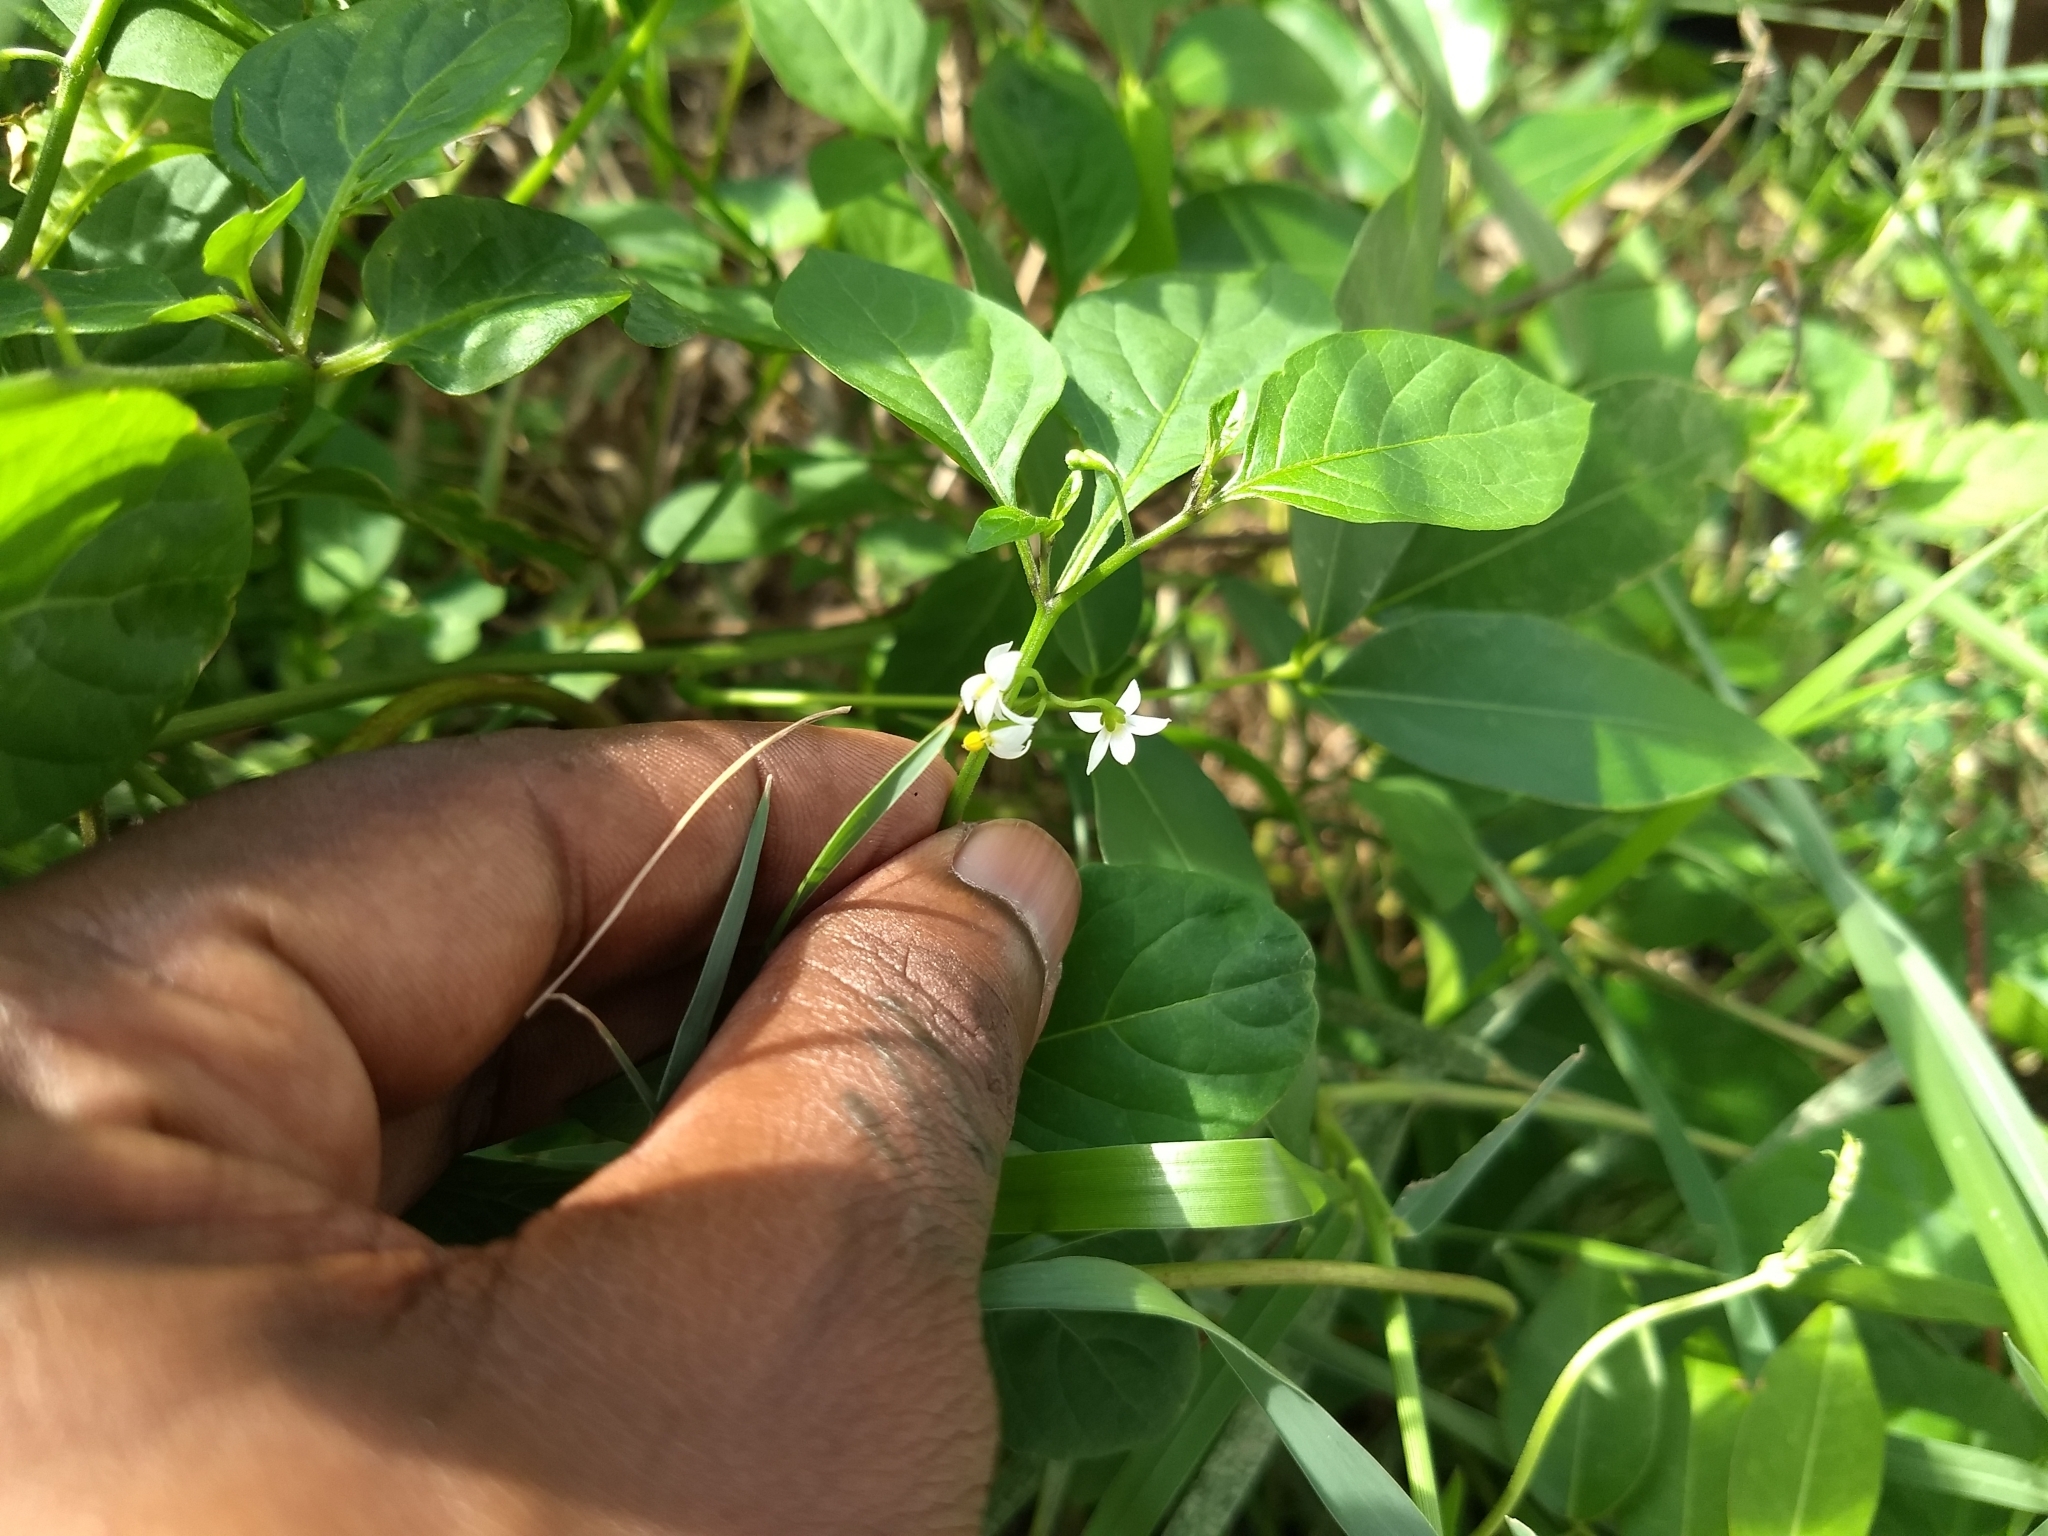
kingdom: Plantae
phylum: Tracheophyta
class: Magnoliopsida
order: Solanales
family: Solanaceae
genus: Solanum
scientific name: Solanum americanum
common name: American black nightshade
